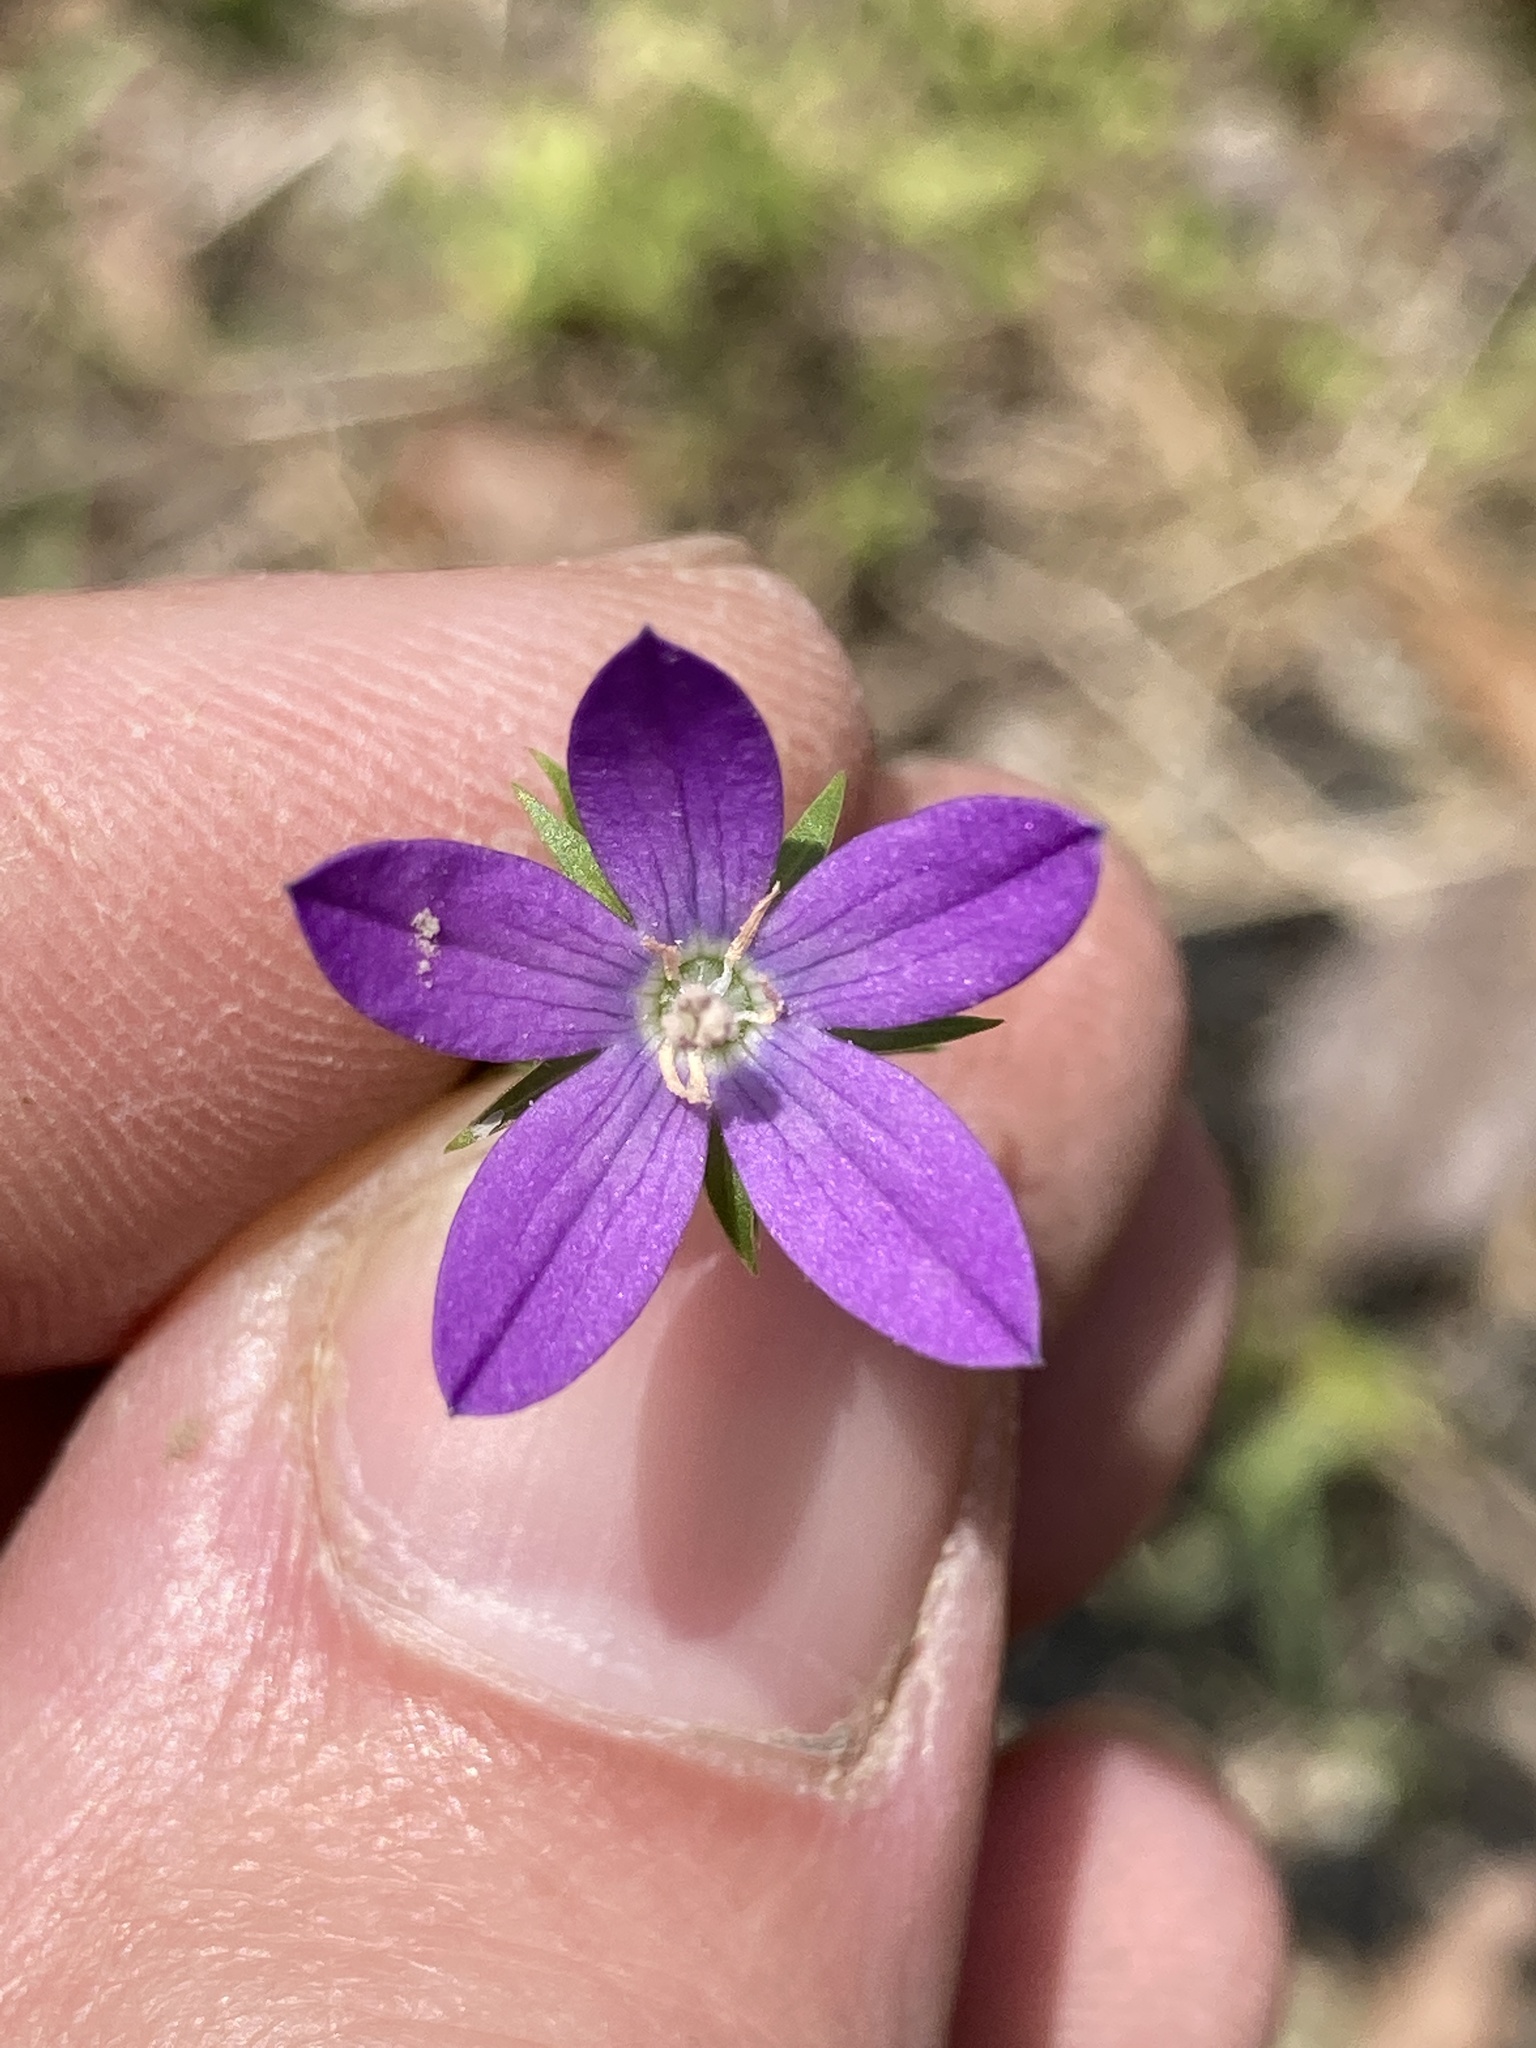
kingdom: Plantae
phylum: Tracheophyta
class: Magnoliopsida
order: Asterales
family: Campanulaceae
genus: Triodanis
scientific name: Triodanis biflora
